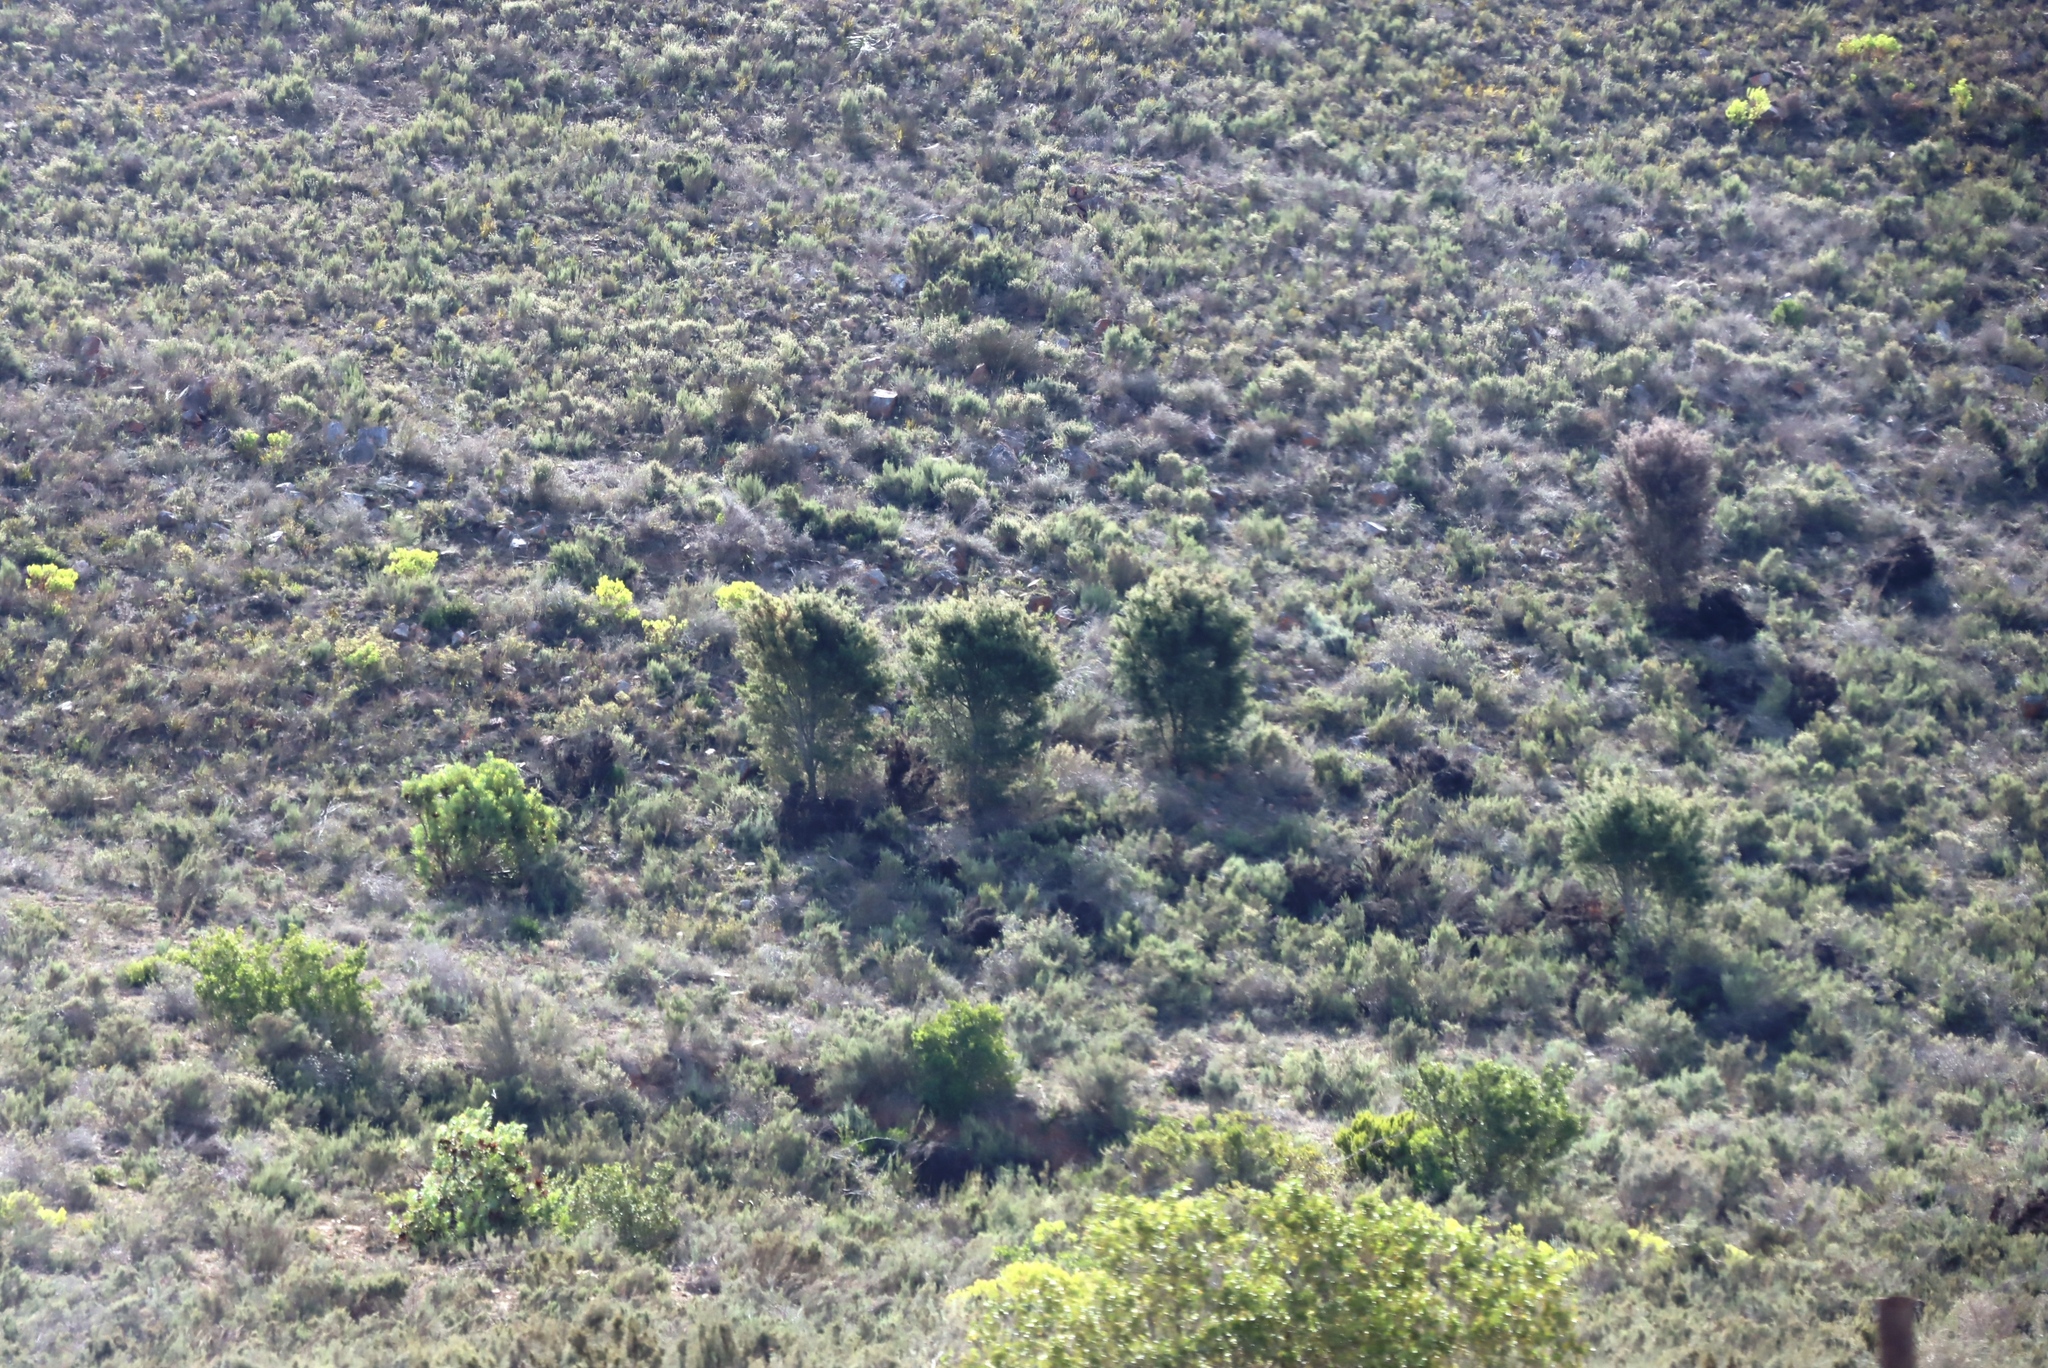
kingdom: Plantae
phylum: Tracheophyta
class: Magnoliopsida
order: Proteales
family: Proteaceae
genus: Hakea
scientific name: Hakea sericea
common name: Needle bush
